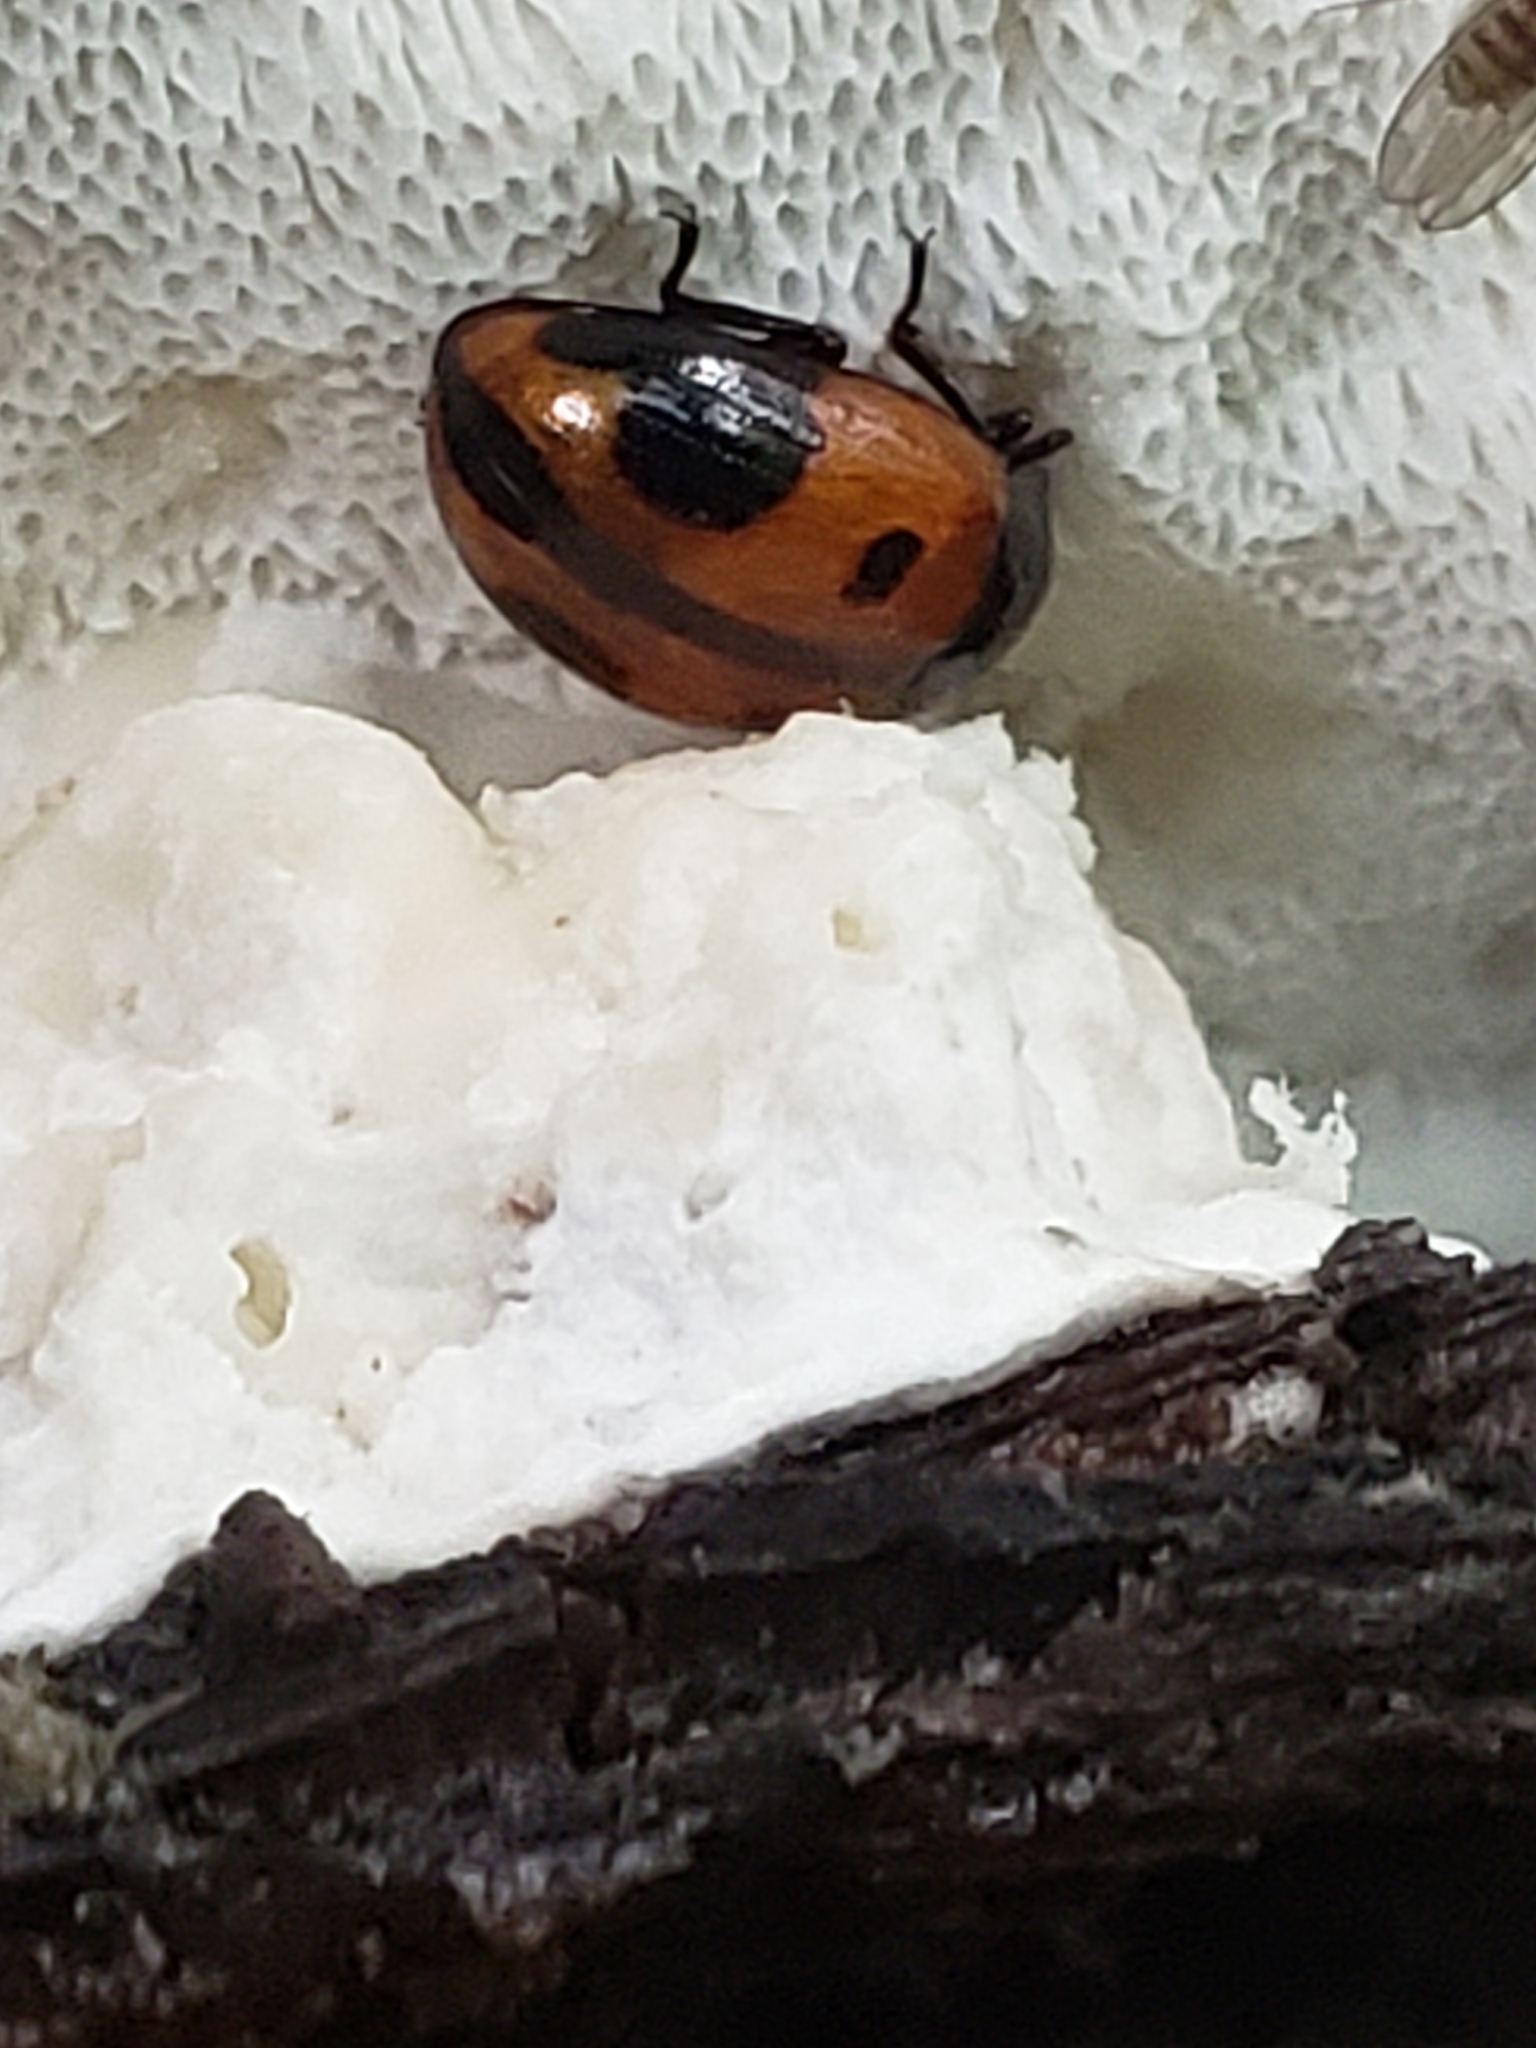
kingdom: Animalia
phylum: Arthropoda
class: Insecta
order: Coleoptera
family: Tenebrionidae
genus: Diaperis
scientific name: Diaperis maculata
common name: Darkling beetle
